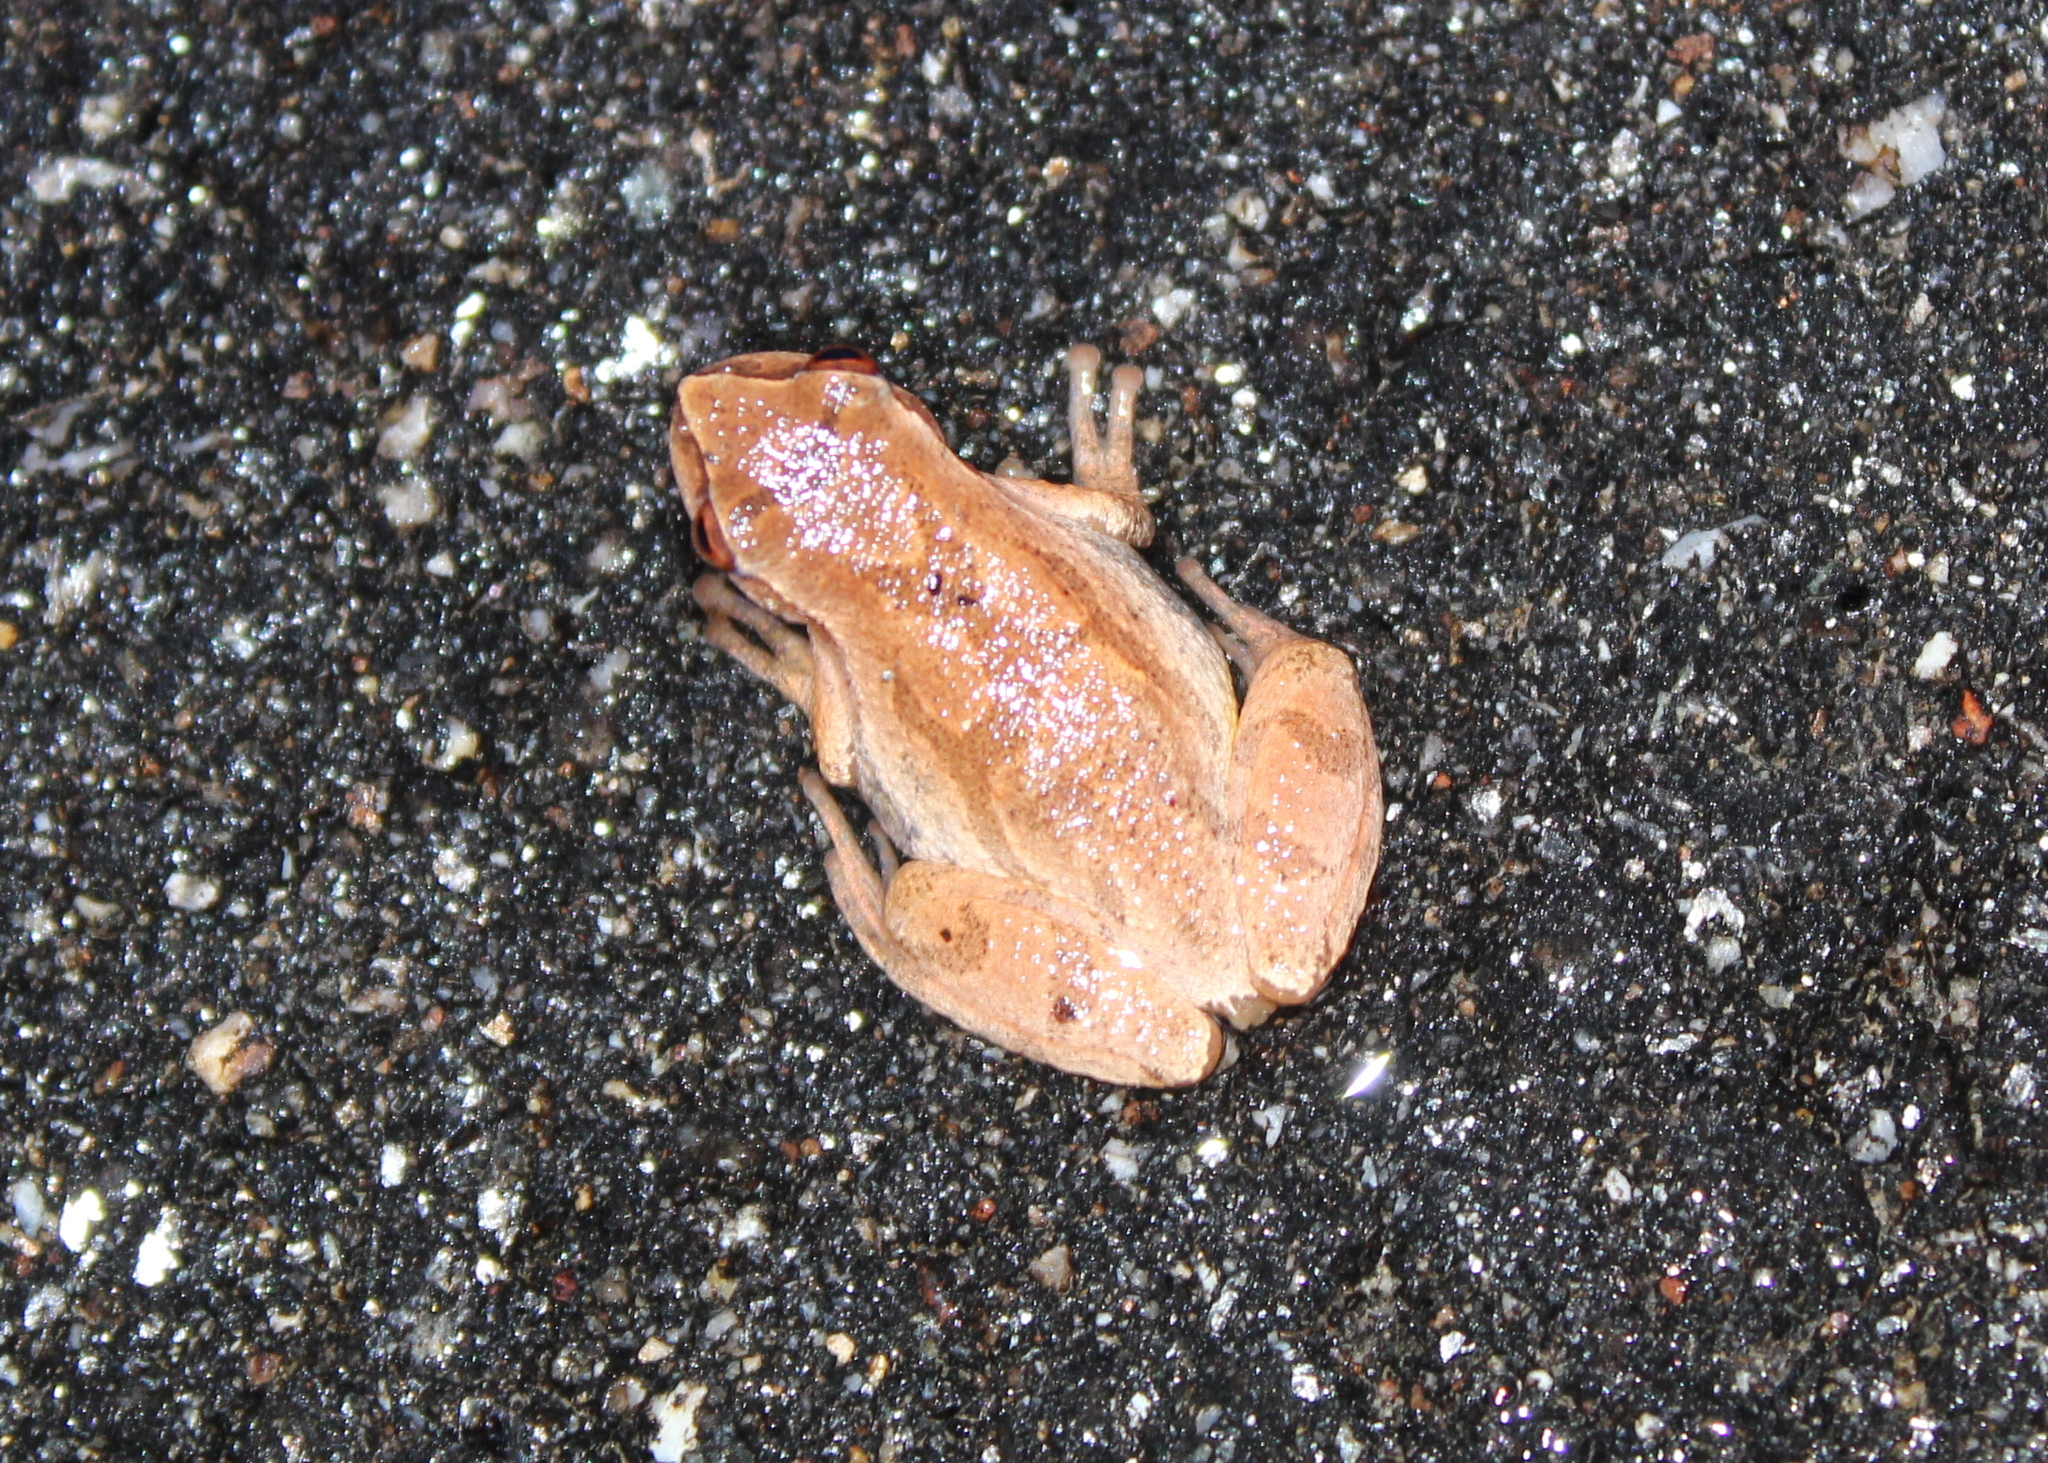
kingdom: Animalia
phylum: Chordata
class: Amphibia
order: Anura
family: Hylidae
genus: Pseudacris
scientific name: Pseudacris crucifer
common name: Spring peeper
